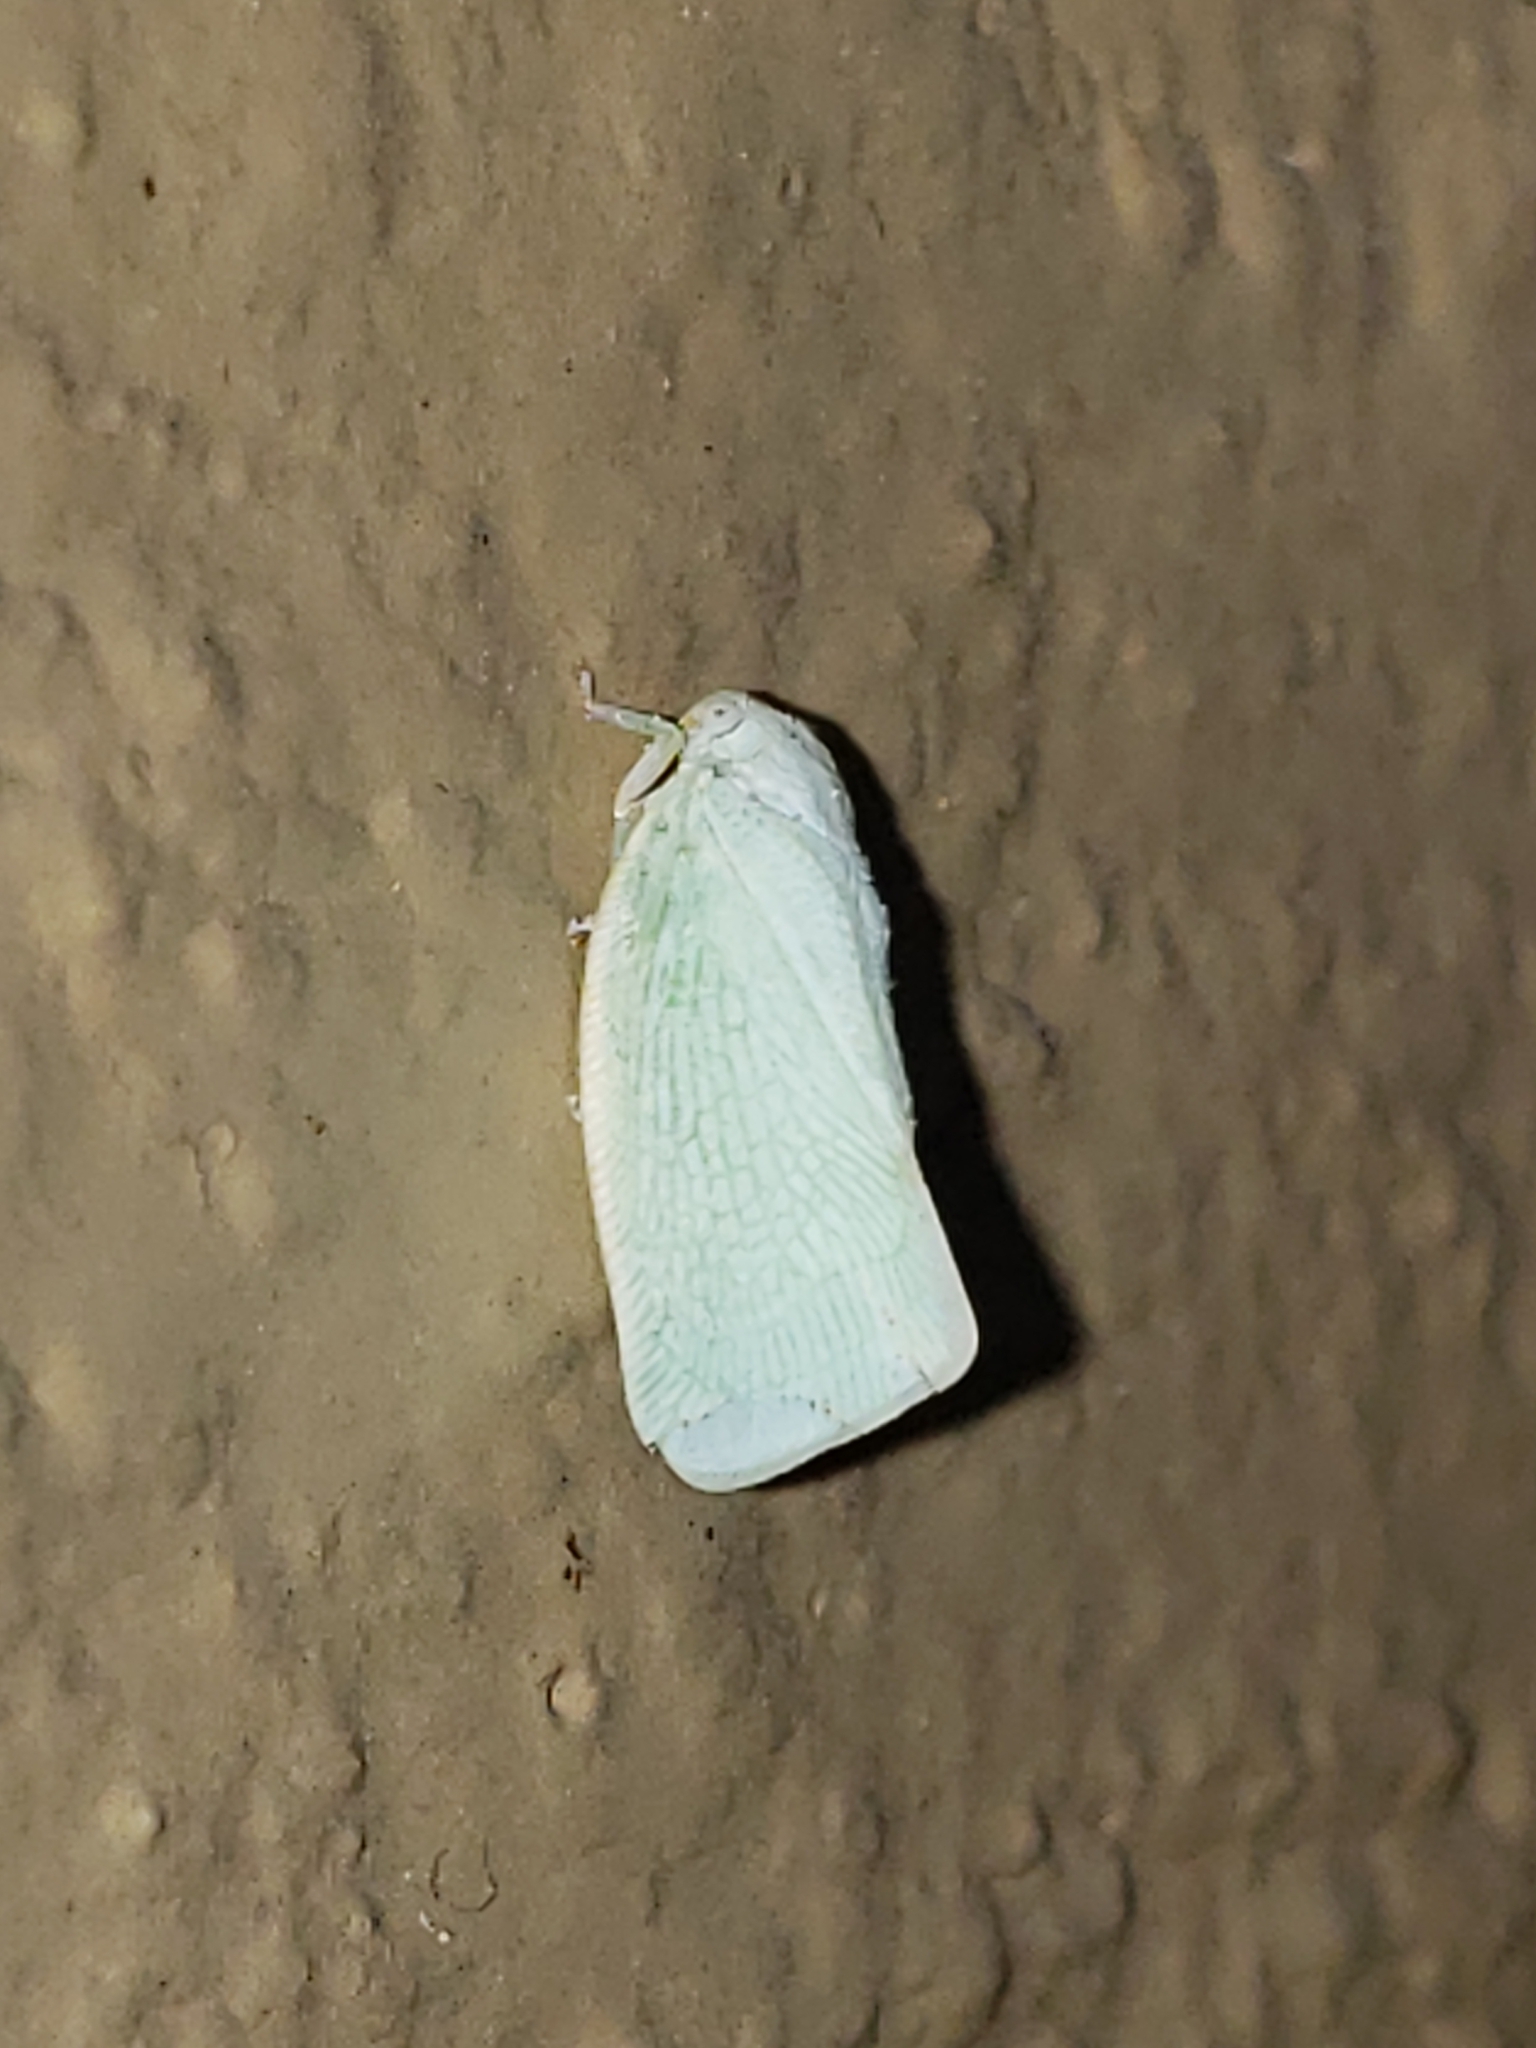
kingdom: Animalia
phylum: Arthropoda
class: Insecta
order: Hemiptera
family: Flatidae
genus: Flatormenis
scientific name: Flatormenis proxima
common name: Northern flatid planthopper
